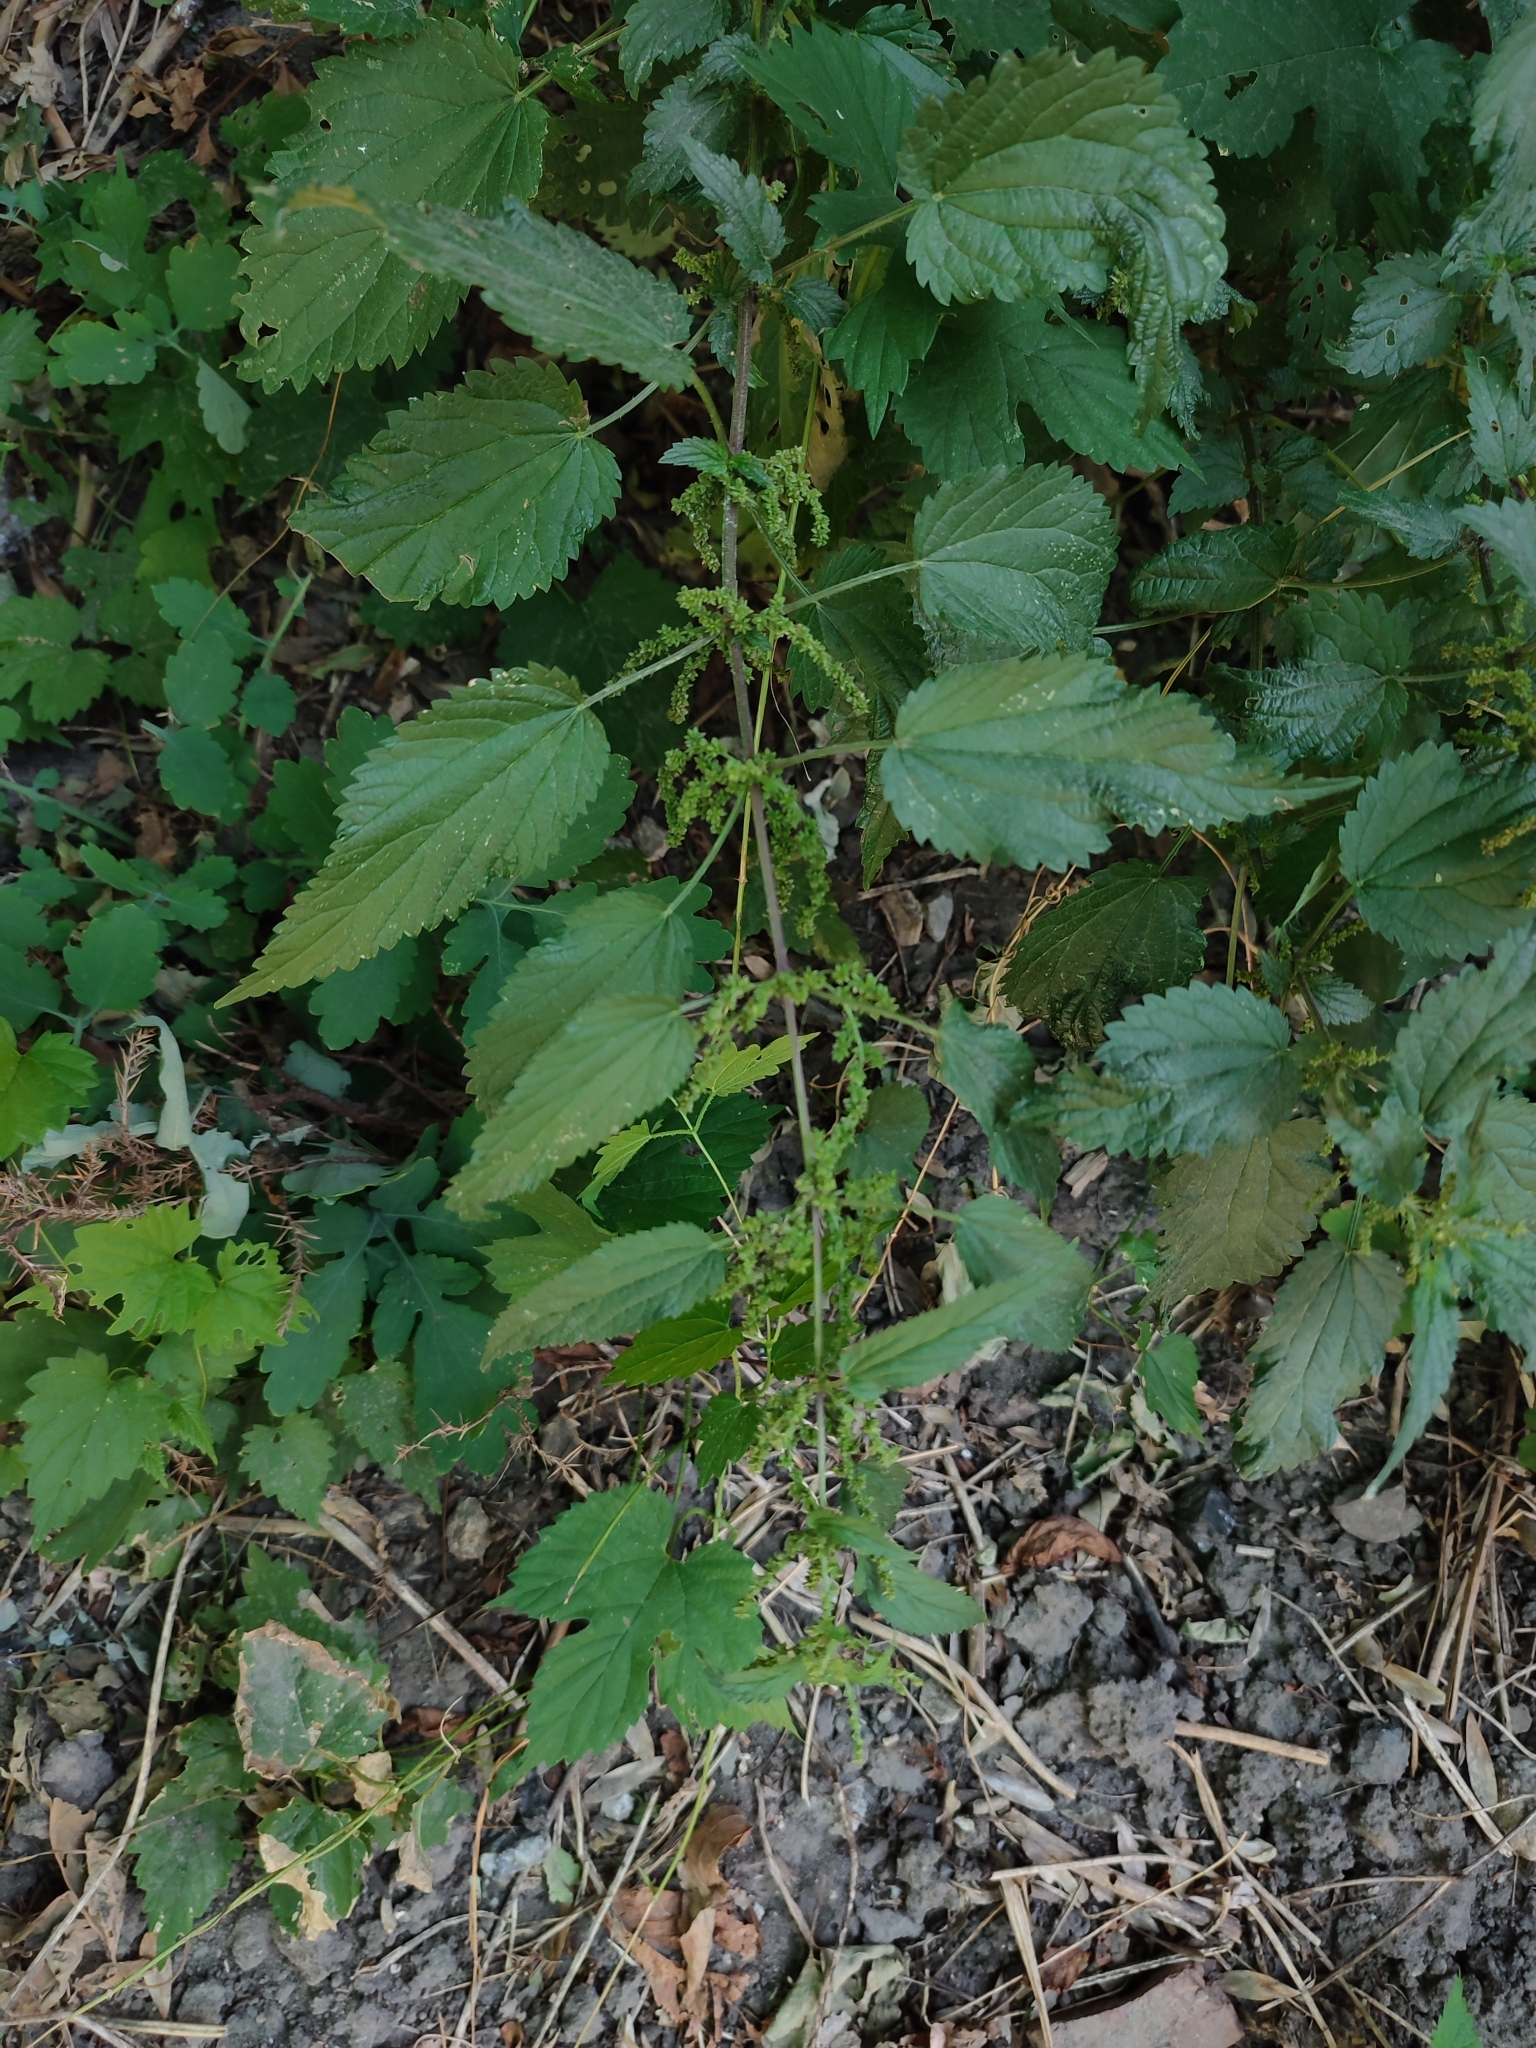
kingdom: Plantae
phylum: Tracheophyta
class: Magnoliopsida
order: Rosales
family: Urticaceae
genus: Urtica
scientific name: Urtica dioica
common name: Common nettle
